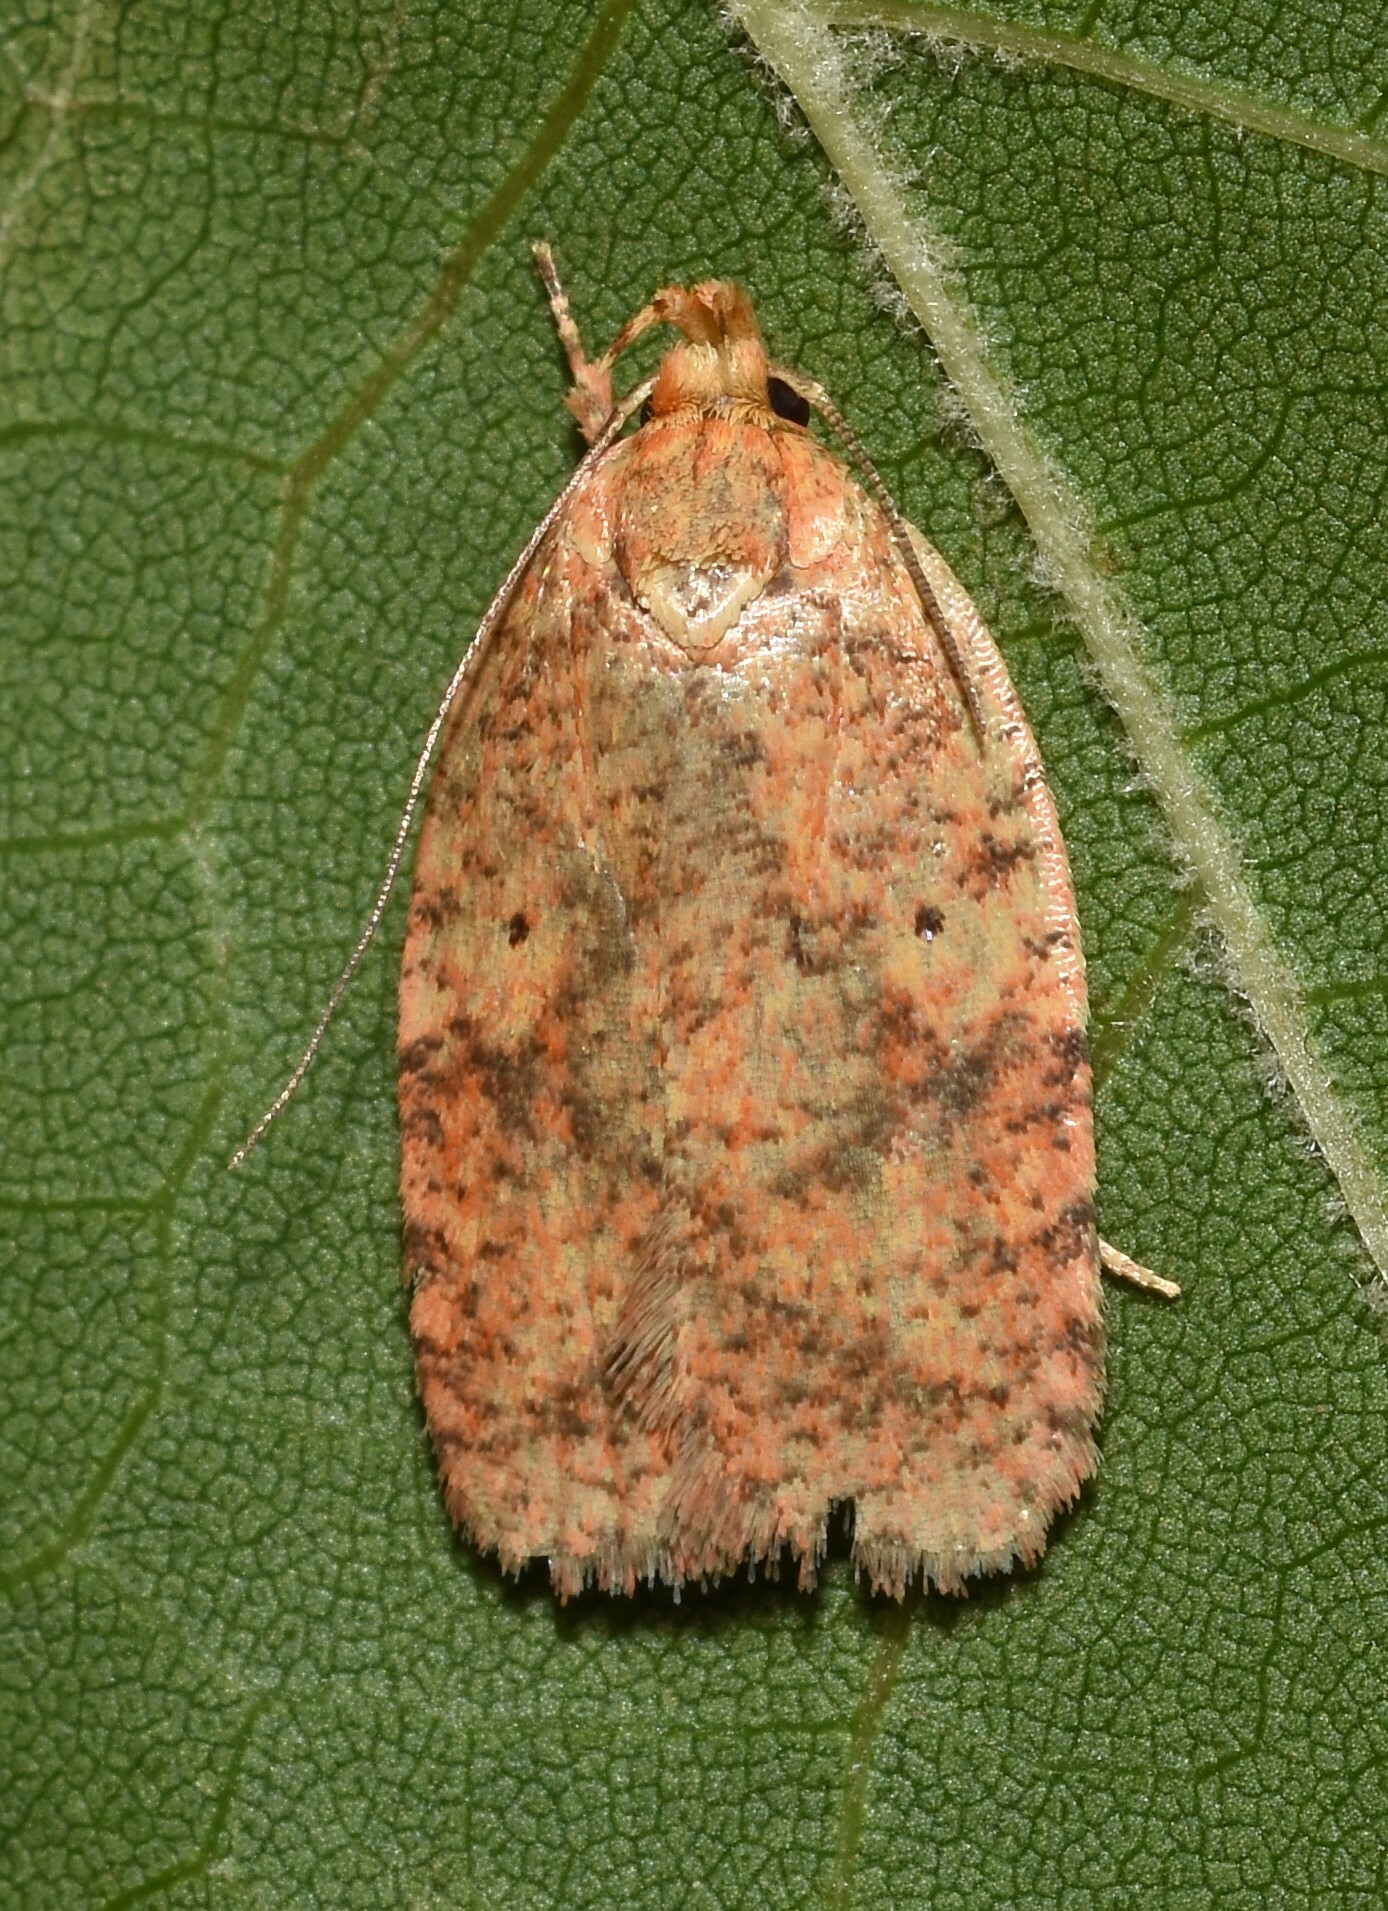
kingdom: Animalia
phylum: Arthropoda
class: Insecta
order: Lepidoptera
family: Depressariidae
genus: Agonopterix
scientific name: Agonopterix robiniella
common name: Four-dotted agonopterix moth
